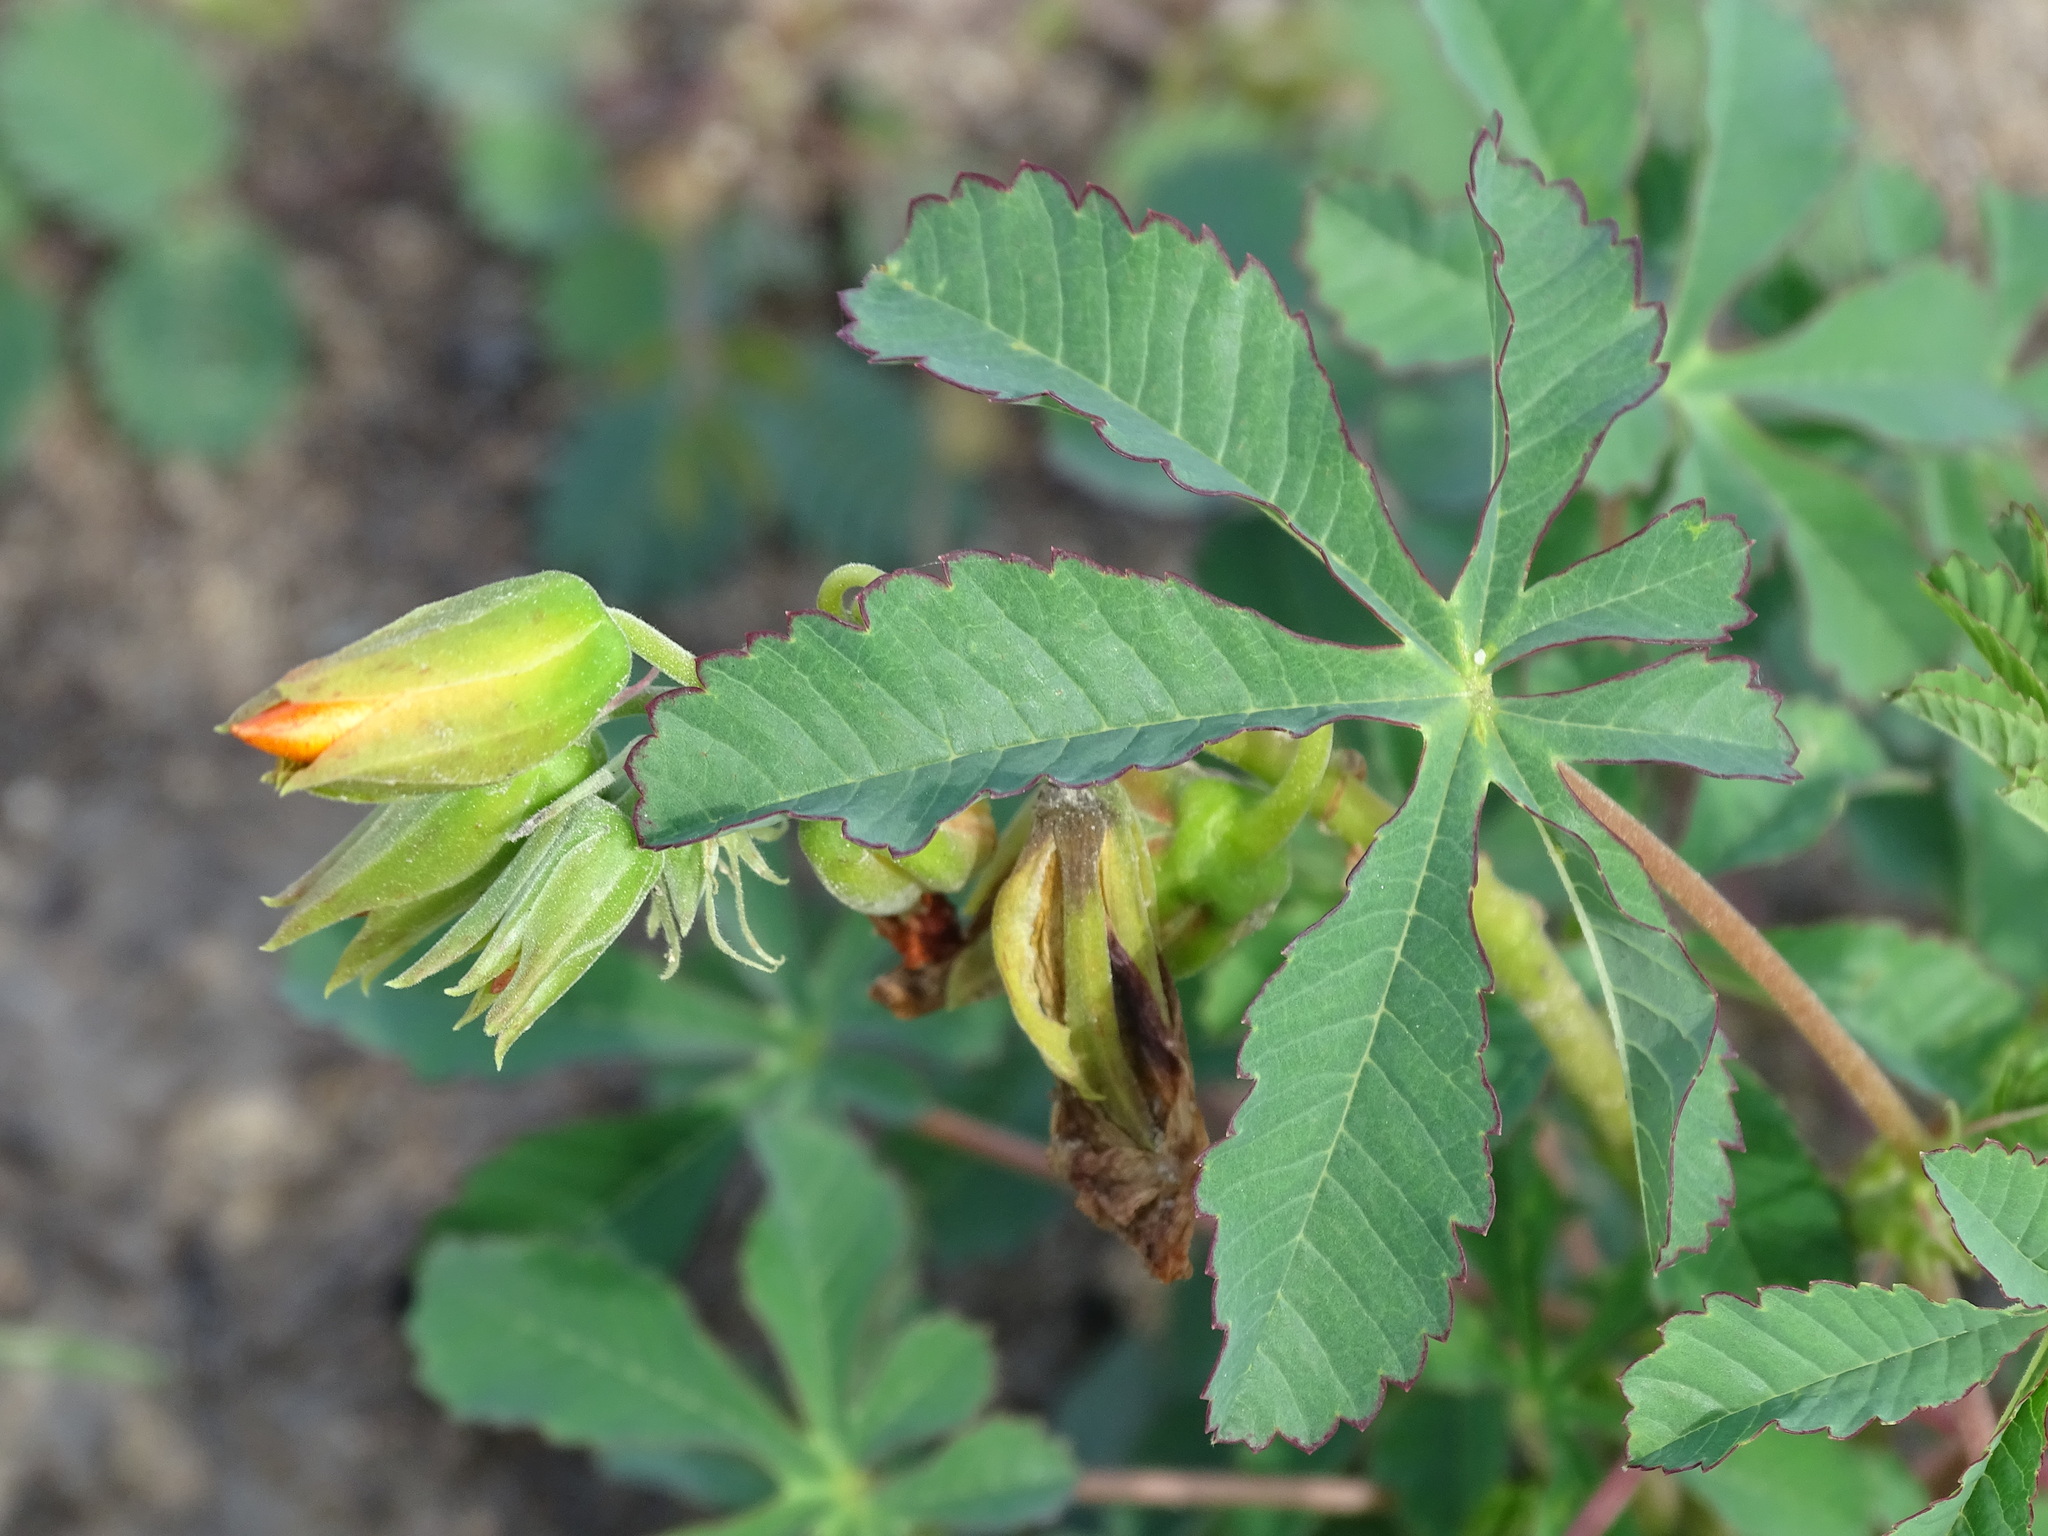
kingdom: Plantae
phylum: Tracheophyta
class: Magnoliopsida
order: Malvales
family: Cochlospermaceae
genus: Cochlospermum
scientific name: Cochlospermum wrightii
